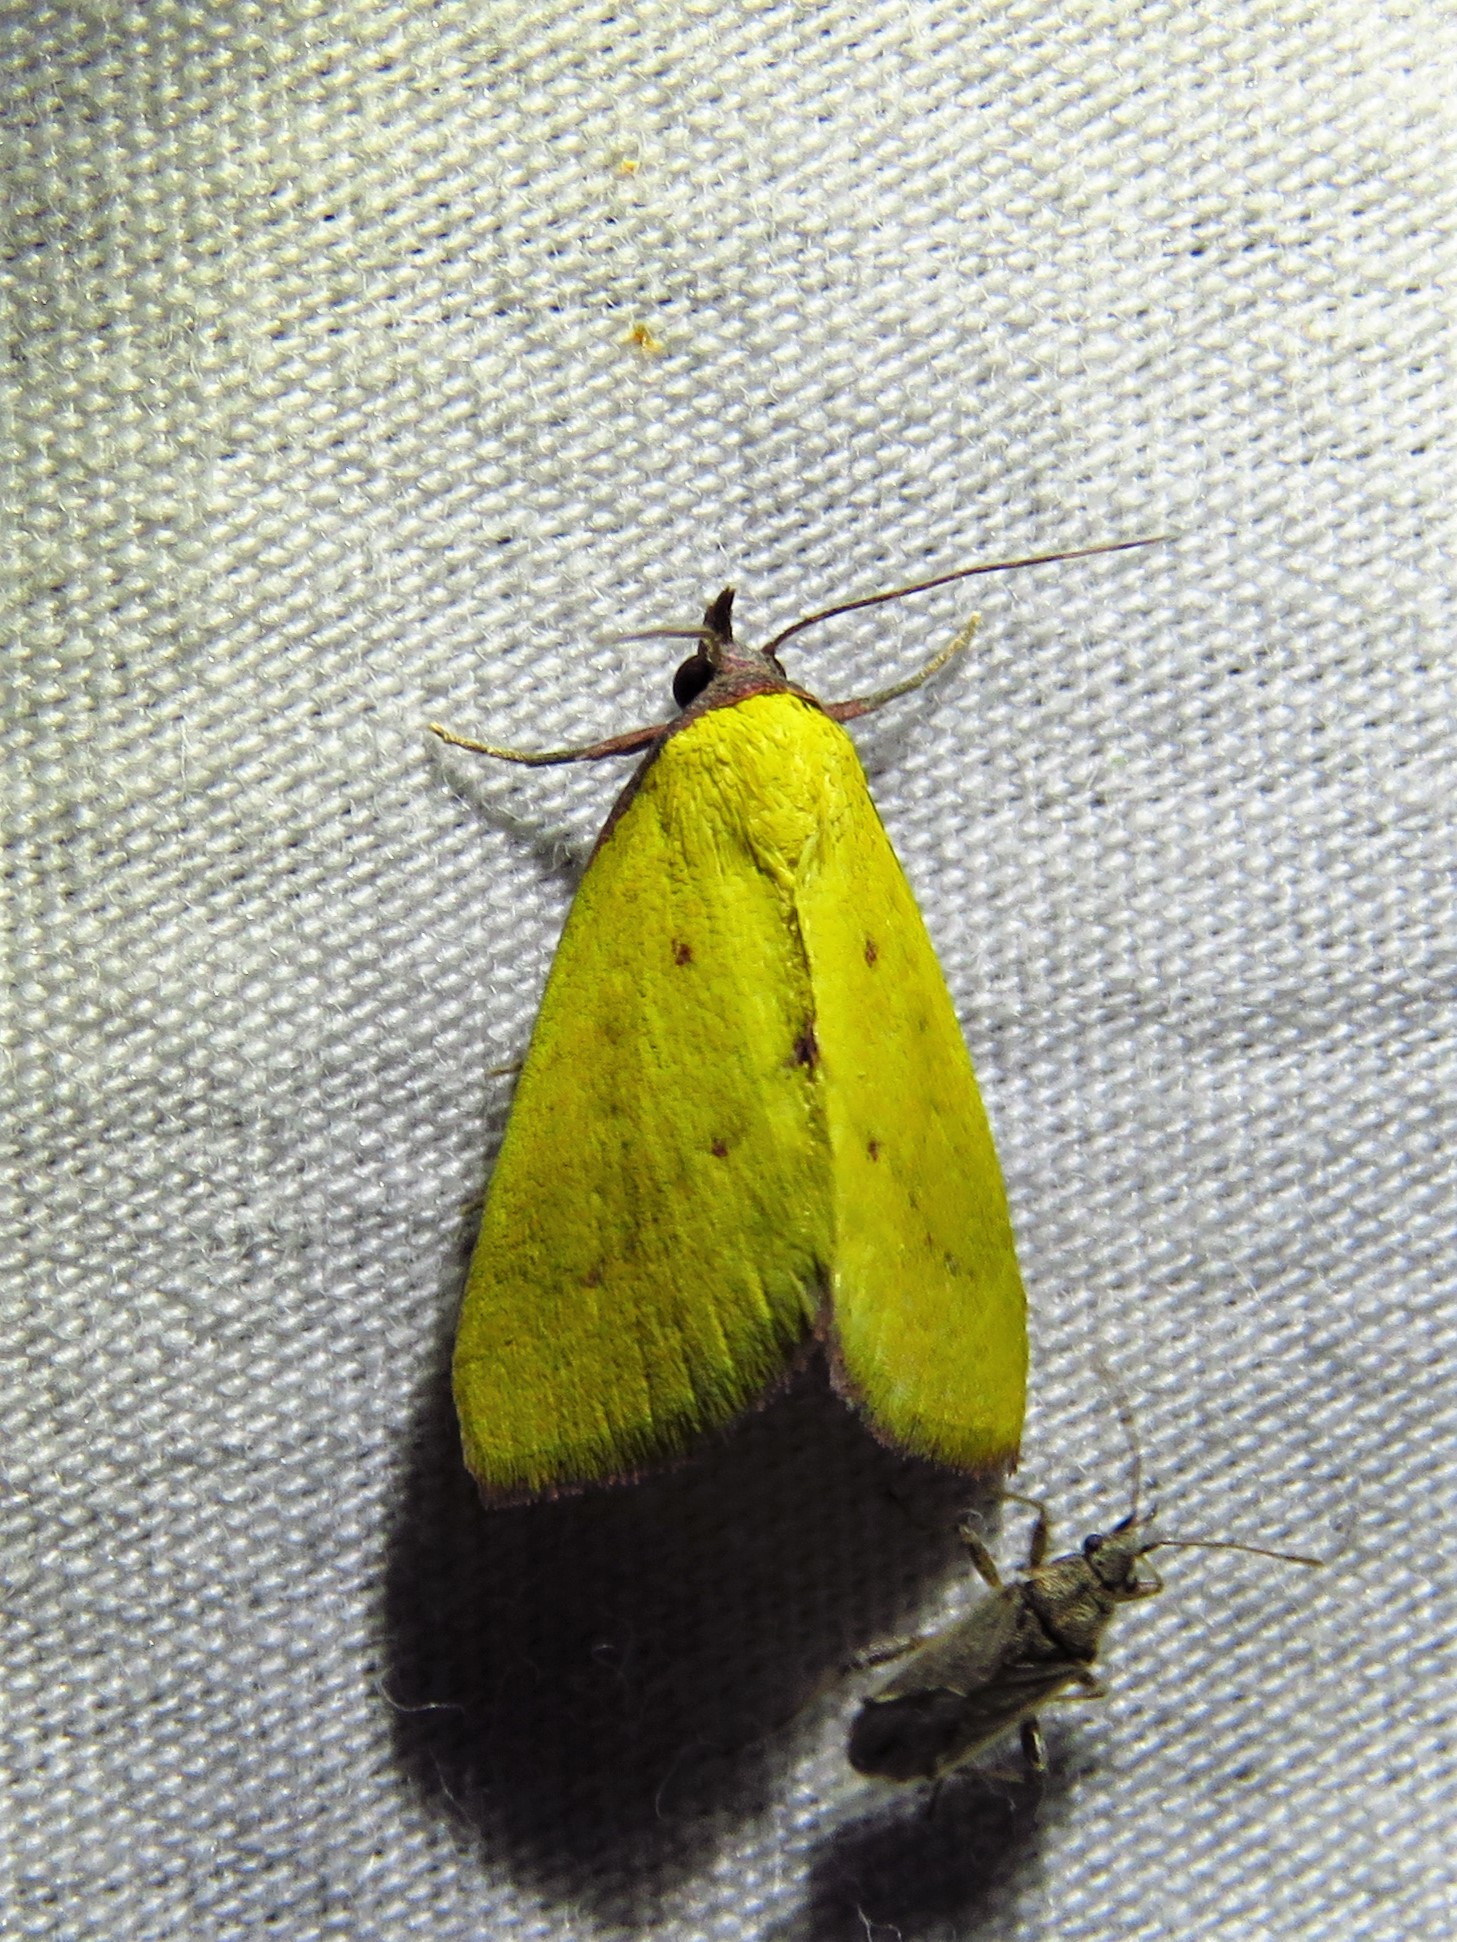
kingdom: Animalia
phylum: Arthropoda
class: Insecta
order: Lepidoptera
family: Erebidae
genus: Phytometra
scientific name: Phytometra orgiae
